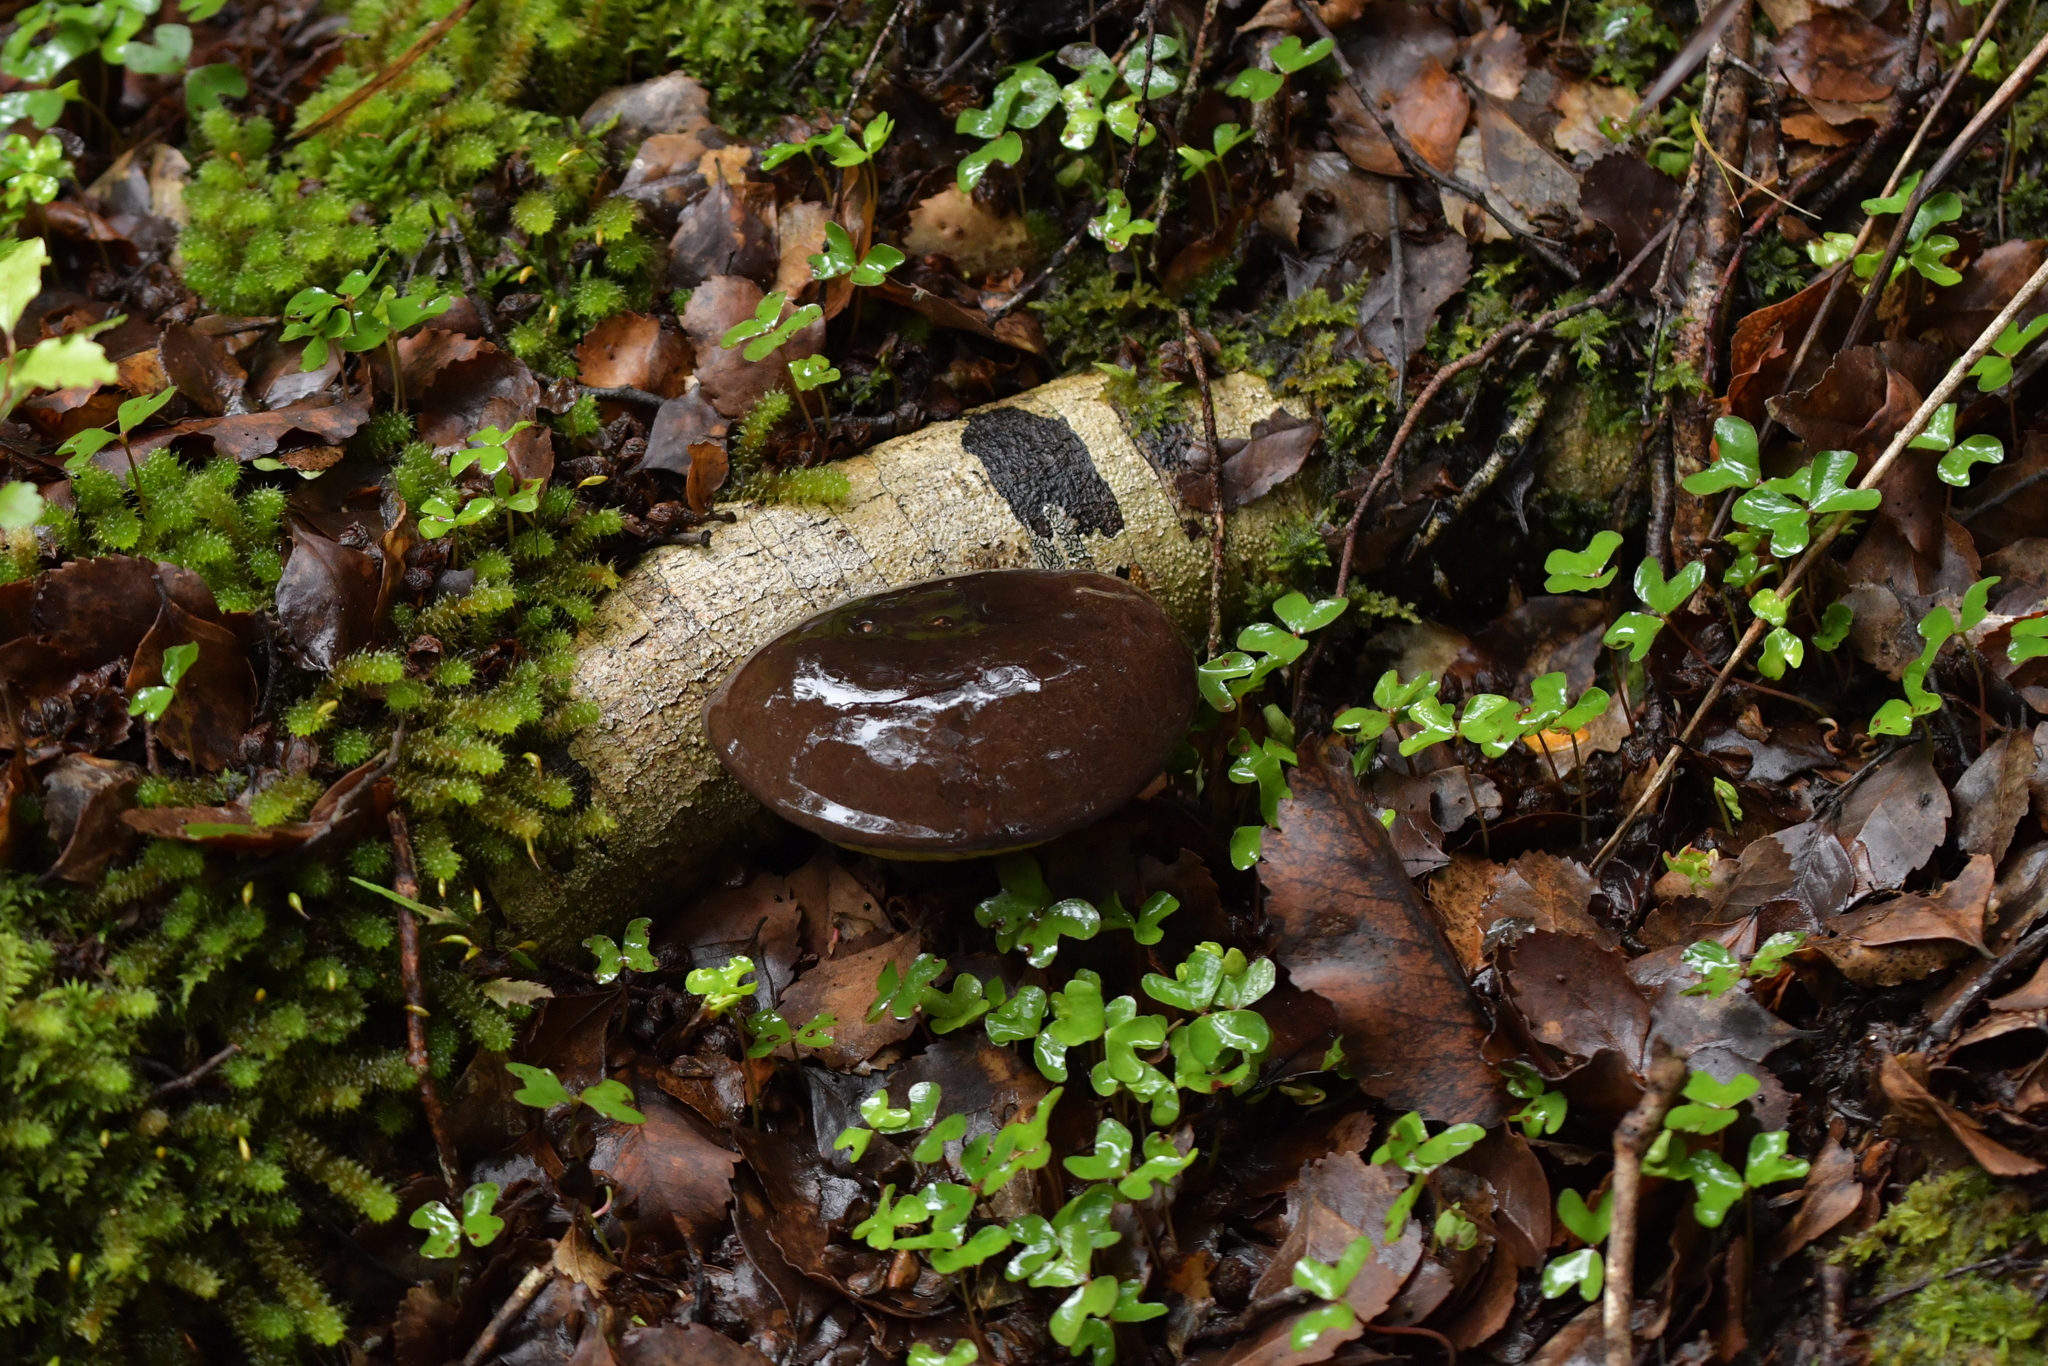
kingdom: Fungi
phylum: Basidiomycota
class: Agaricomycetes
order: Boletales
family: Boletaceae
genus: Porphyrellus
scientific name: Porphyrellus formosus
